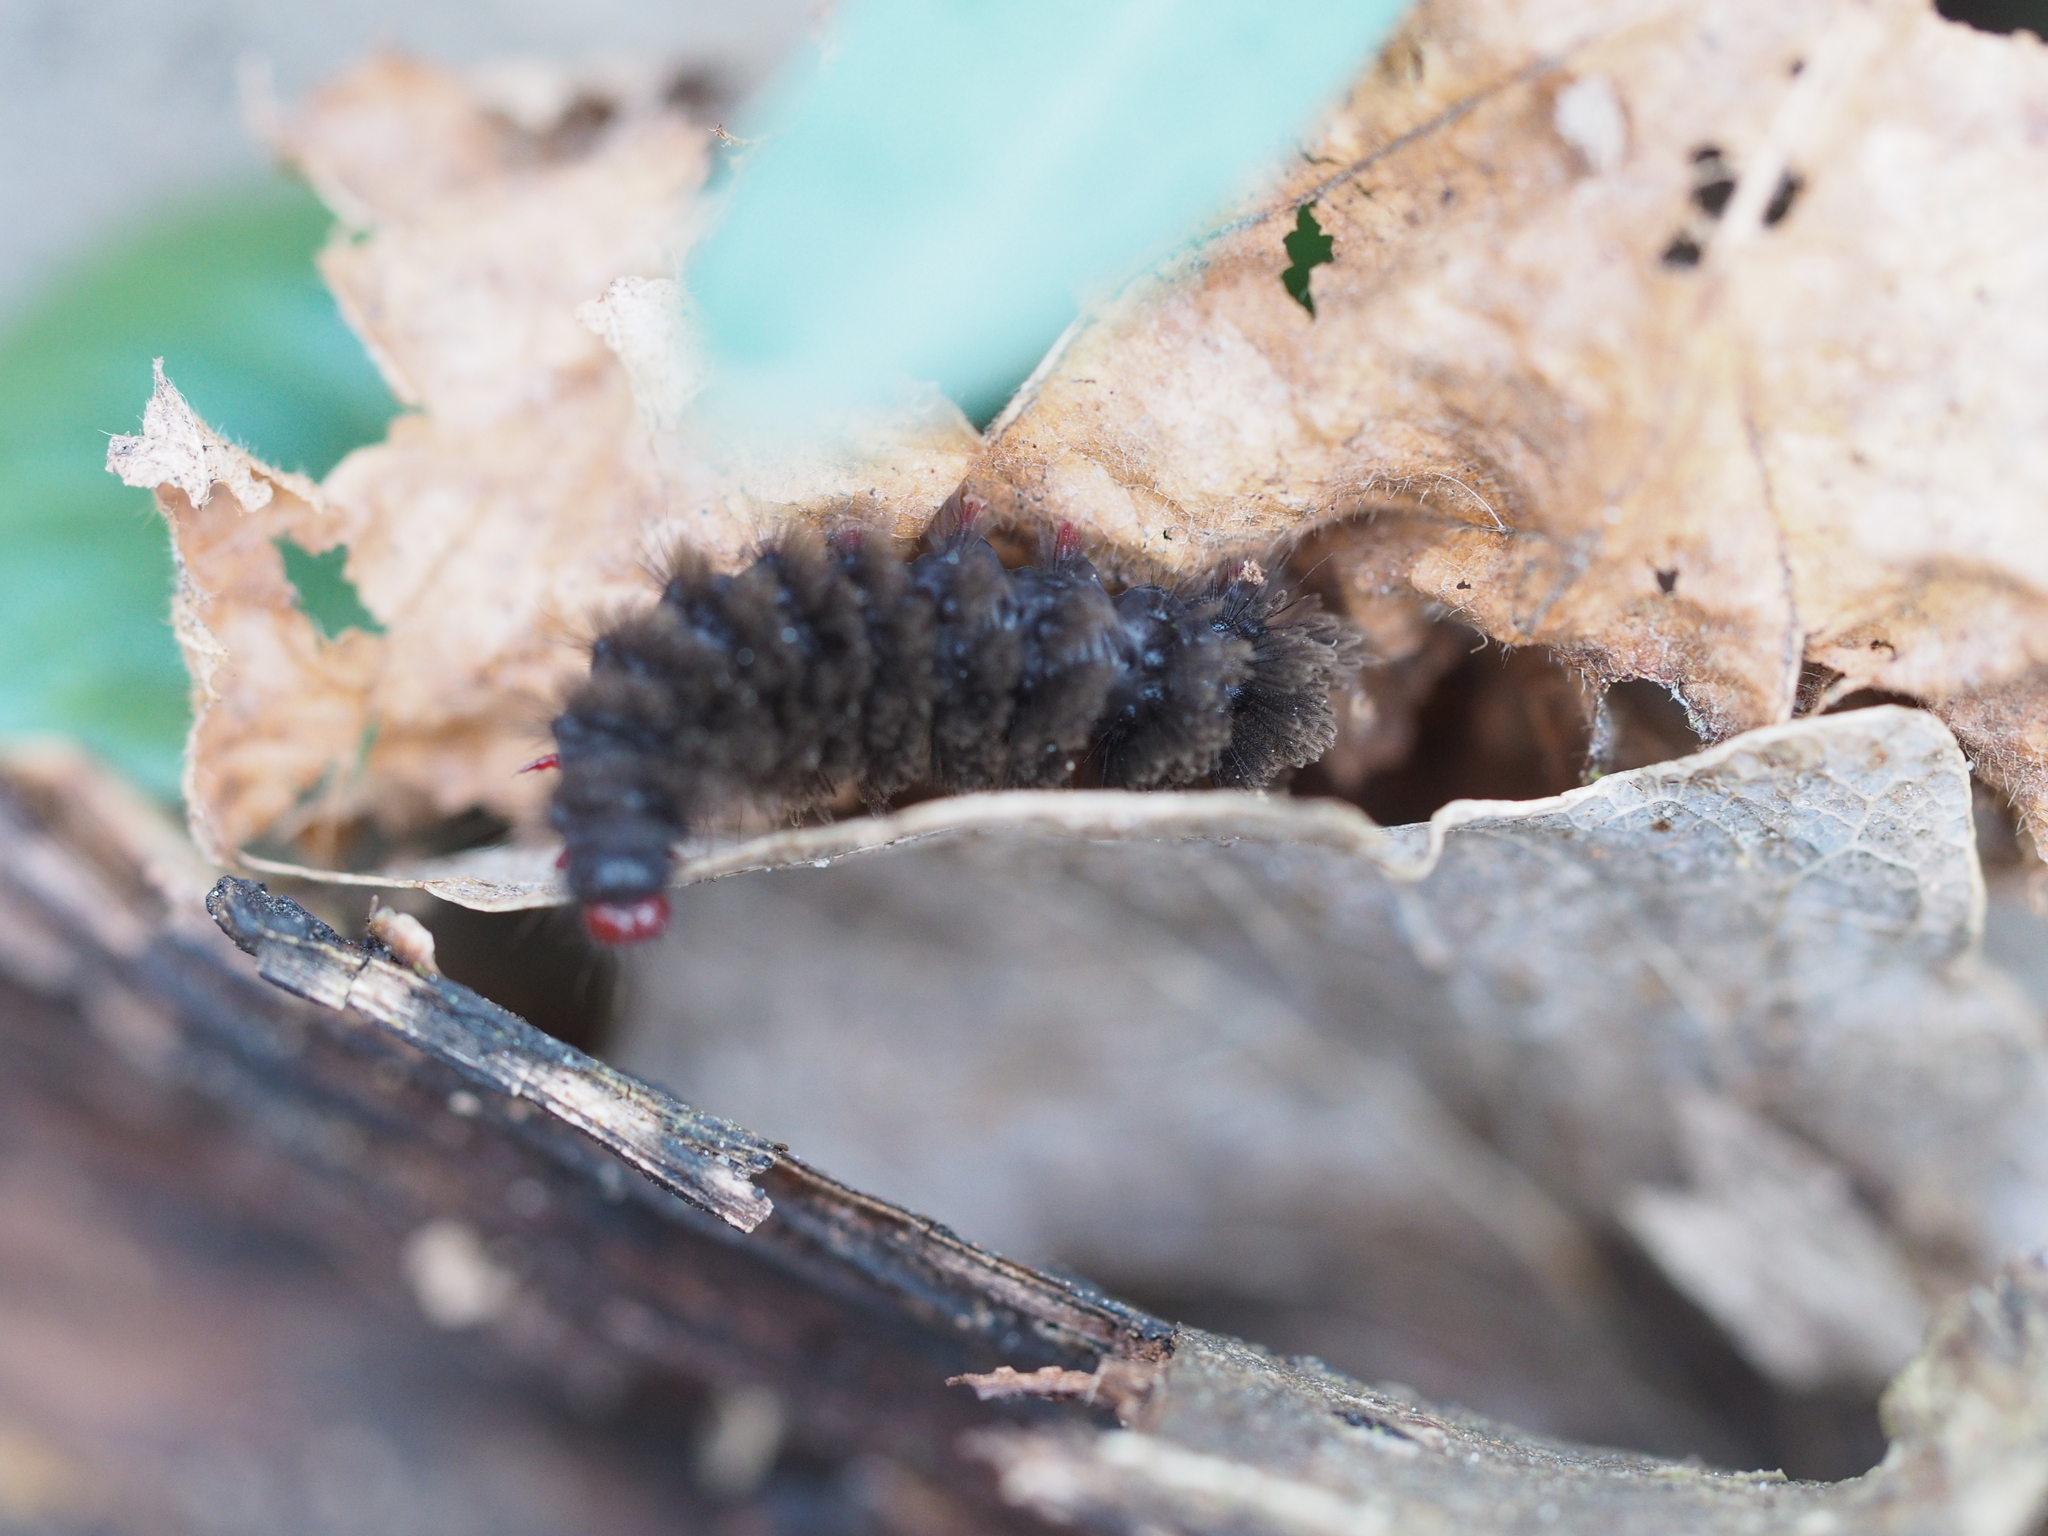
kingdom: Animalia
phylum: Arthropoda
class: Insecta
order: Lepidoptera
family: Erebidae
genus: Amata
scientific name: Amata phegea
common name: Nine-spotted
